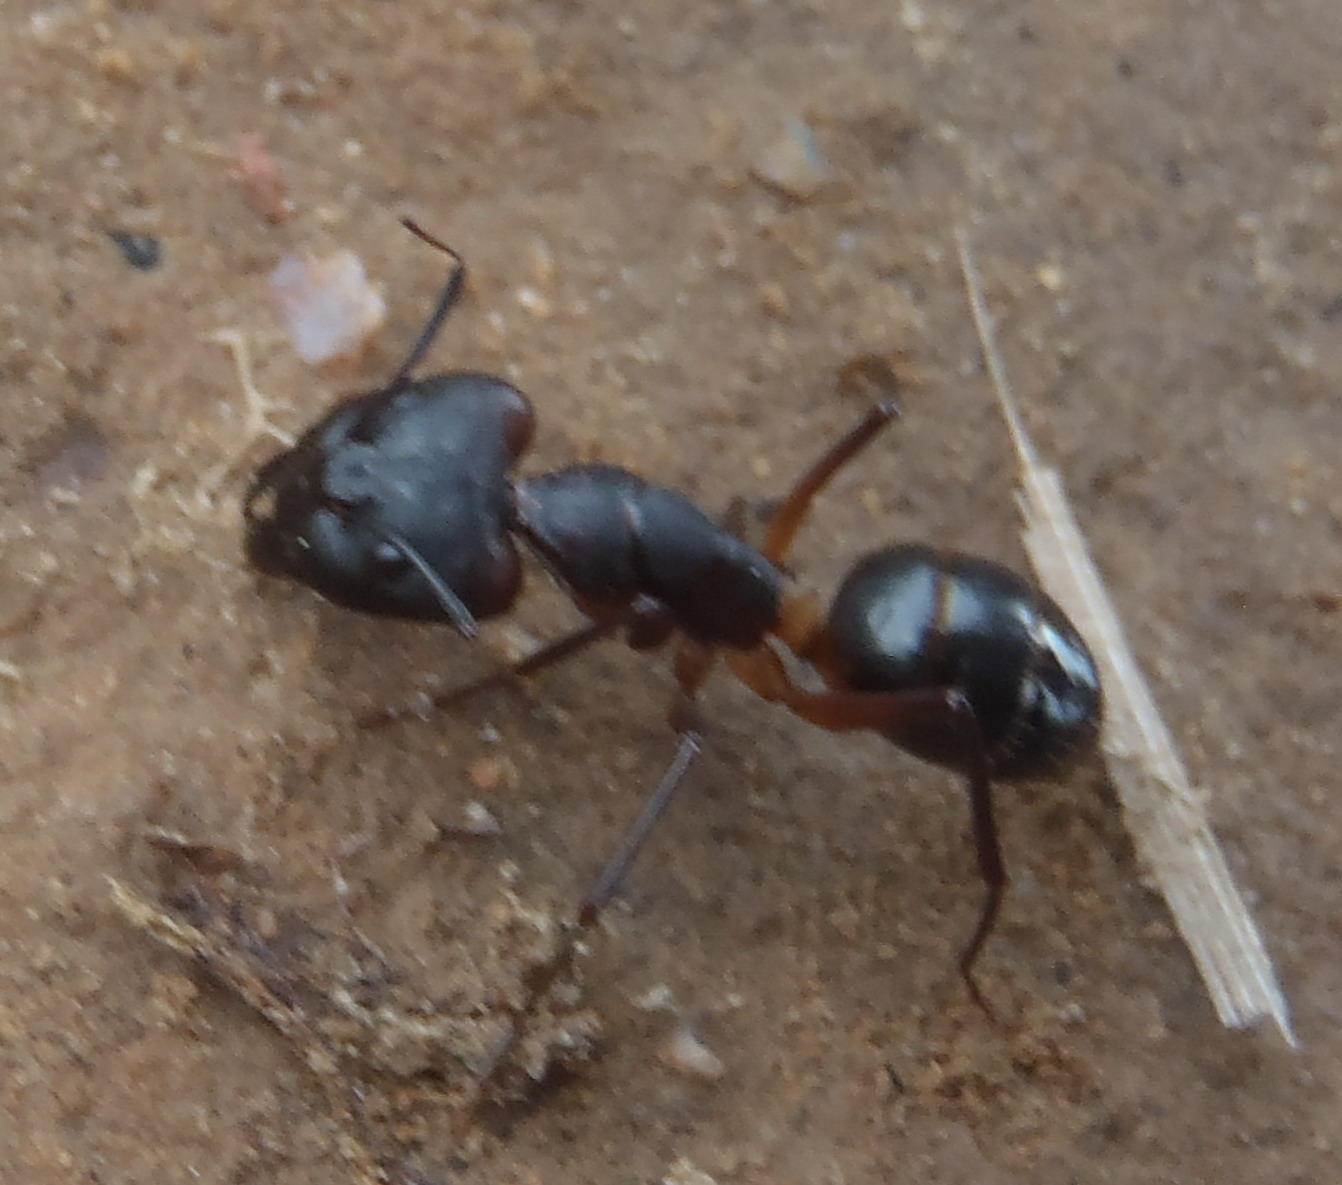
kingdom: Animalia
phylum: Arthropoda
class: Insecta
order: Hymenoptera
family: Formicidae
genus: Camponotus
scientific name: Camponotus baynei
